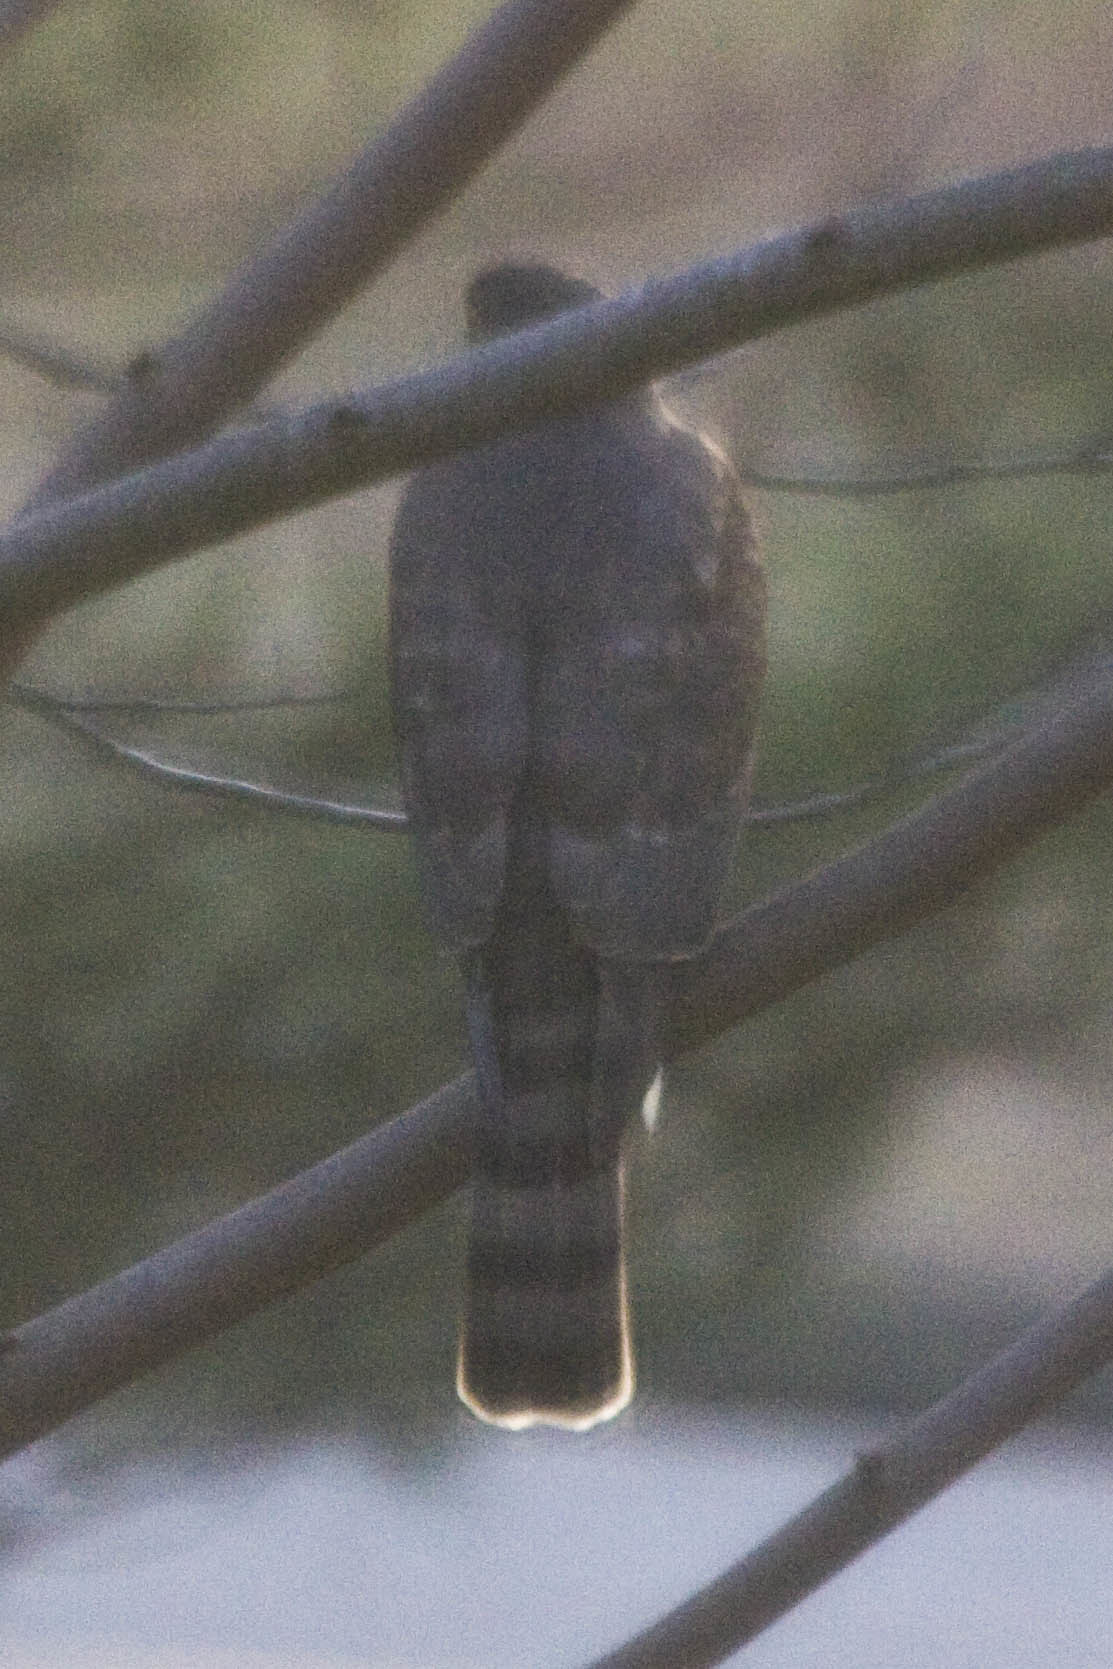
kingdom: Animalia
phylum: Chordata
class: Aves
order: Accipitriformes
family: Accipitridae
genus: Accipiter
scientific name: Accipiter striatus
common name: Sharp-shinned hawk
